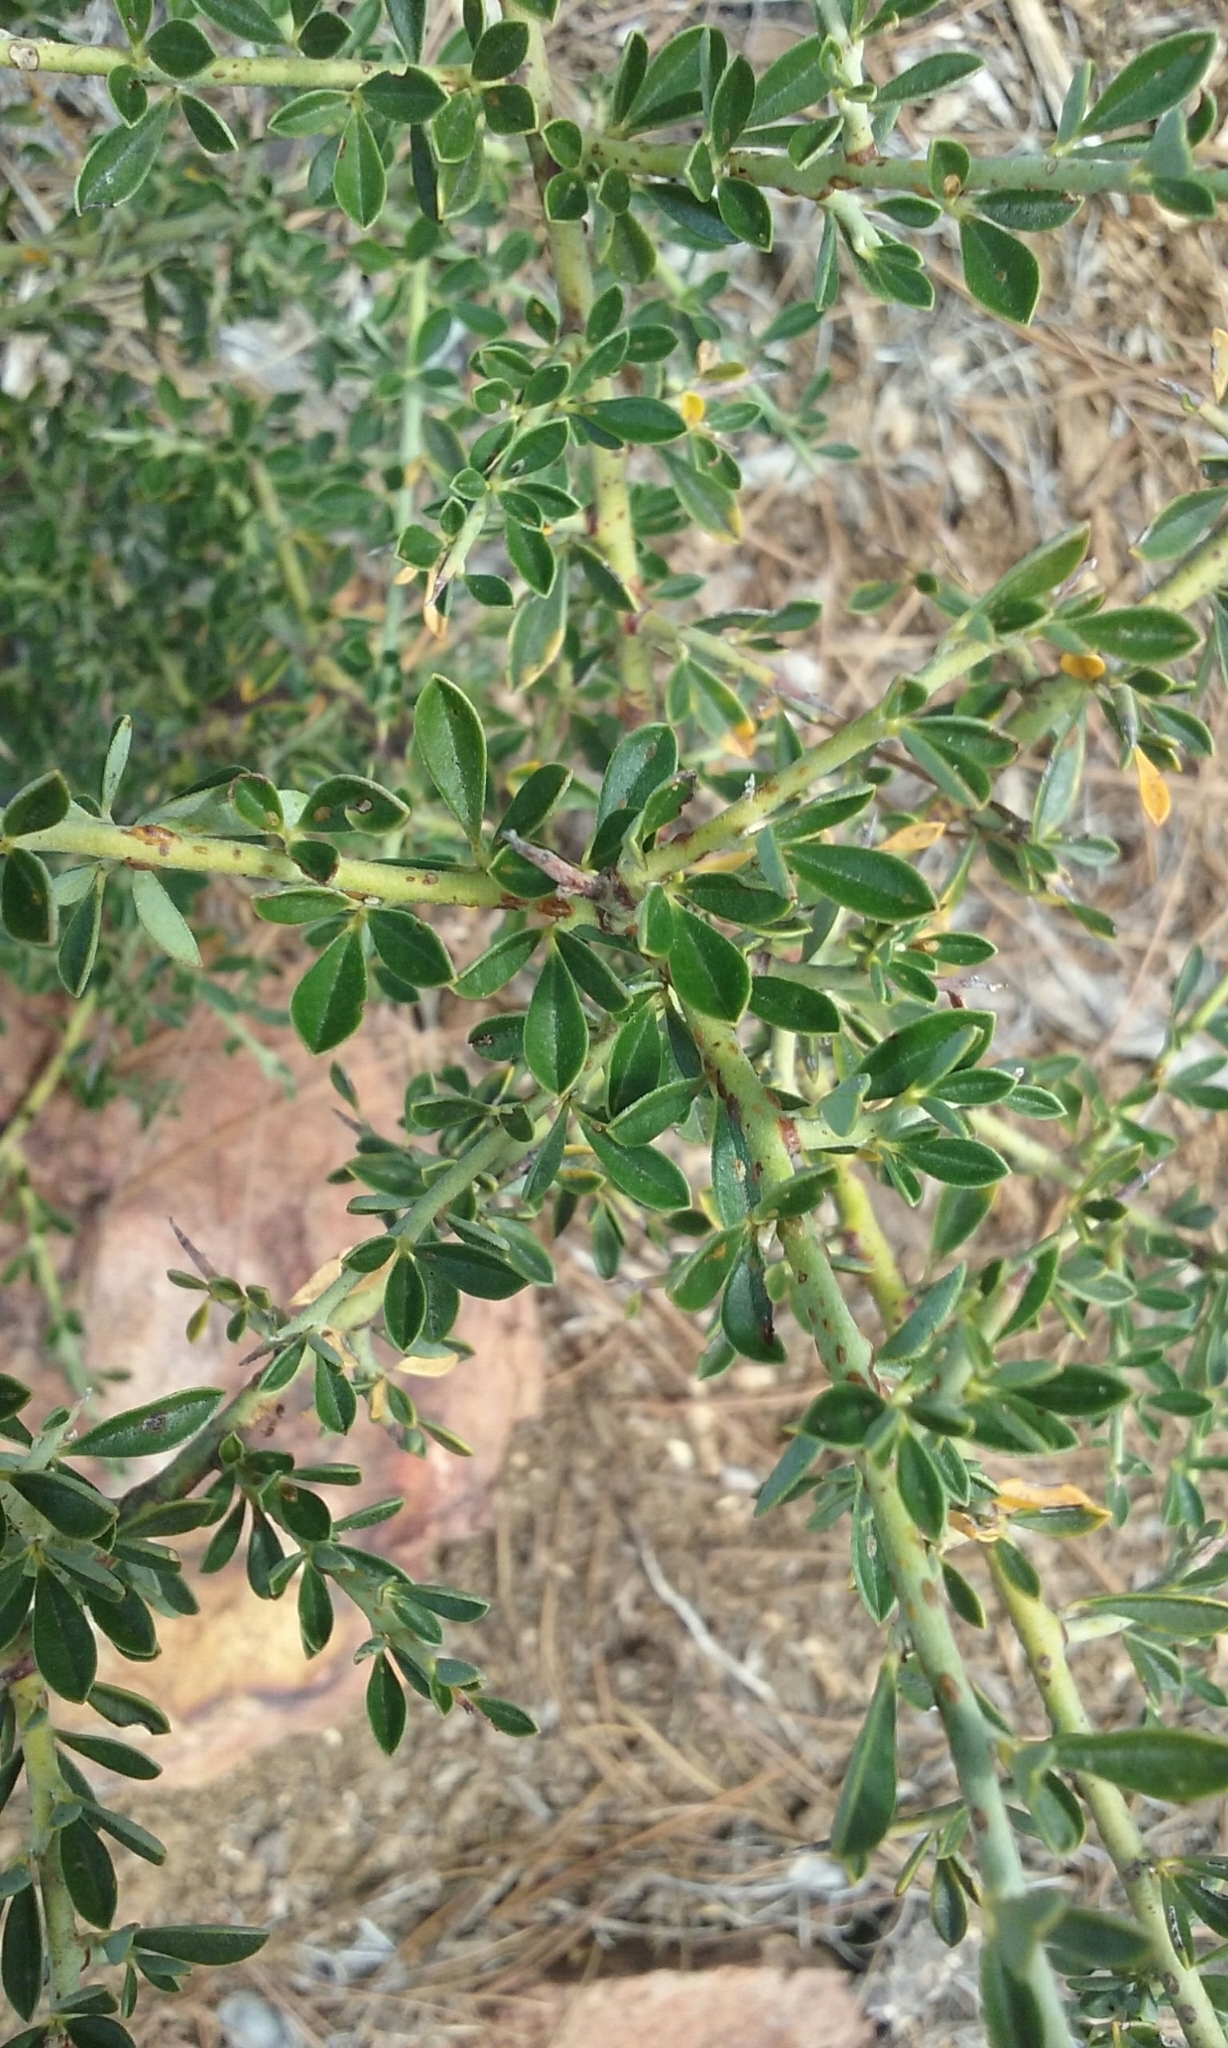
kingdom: Plantae
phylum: Tracheophyta
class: Magnoliopsida
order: Fabales
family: Fabaceae
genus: Pickeringia
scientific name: Pickeringia montana
